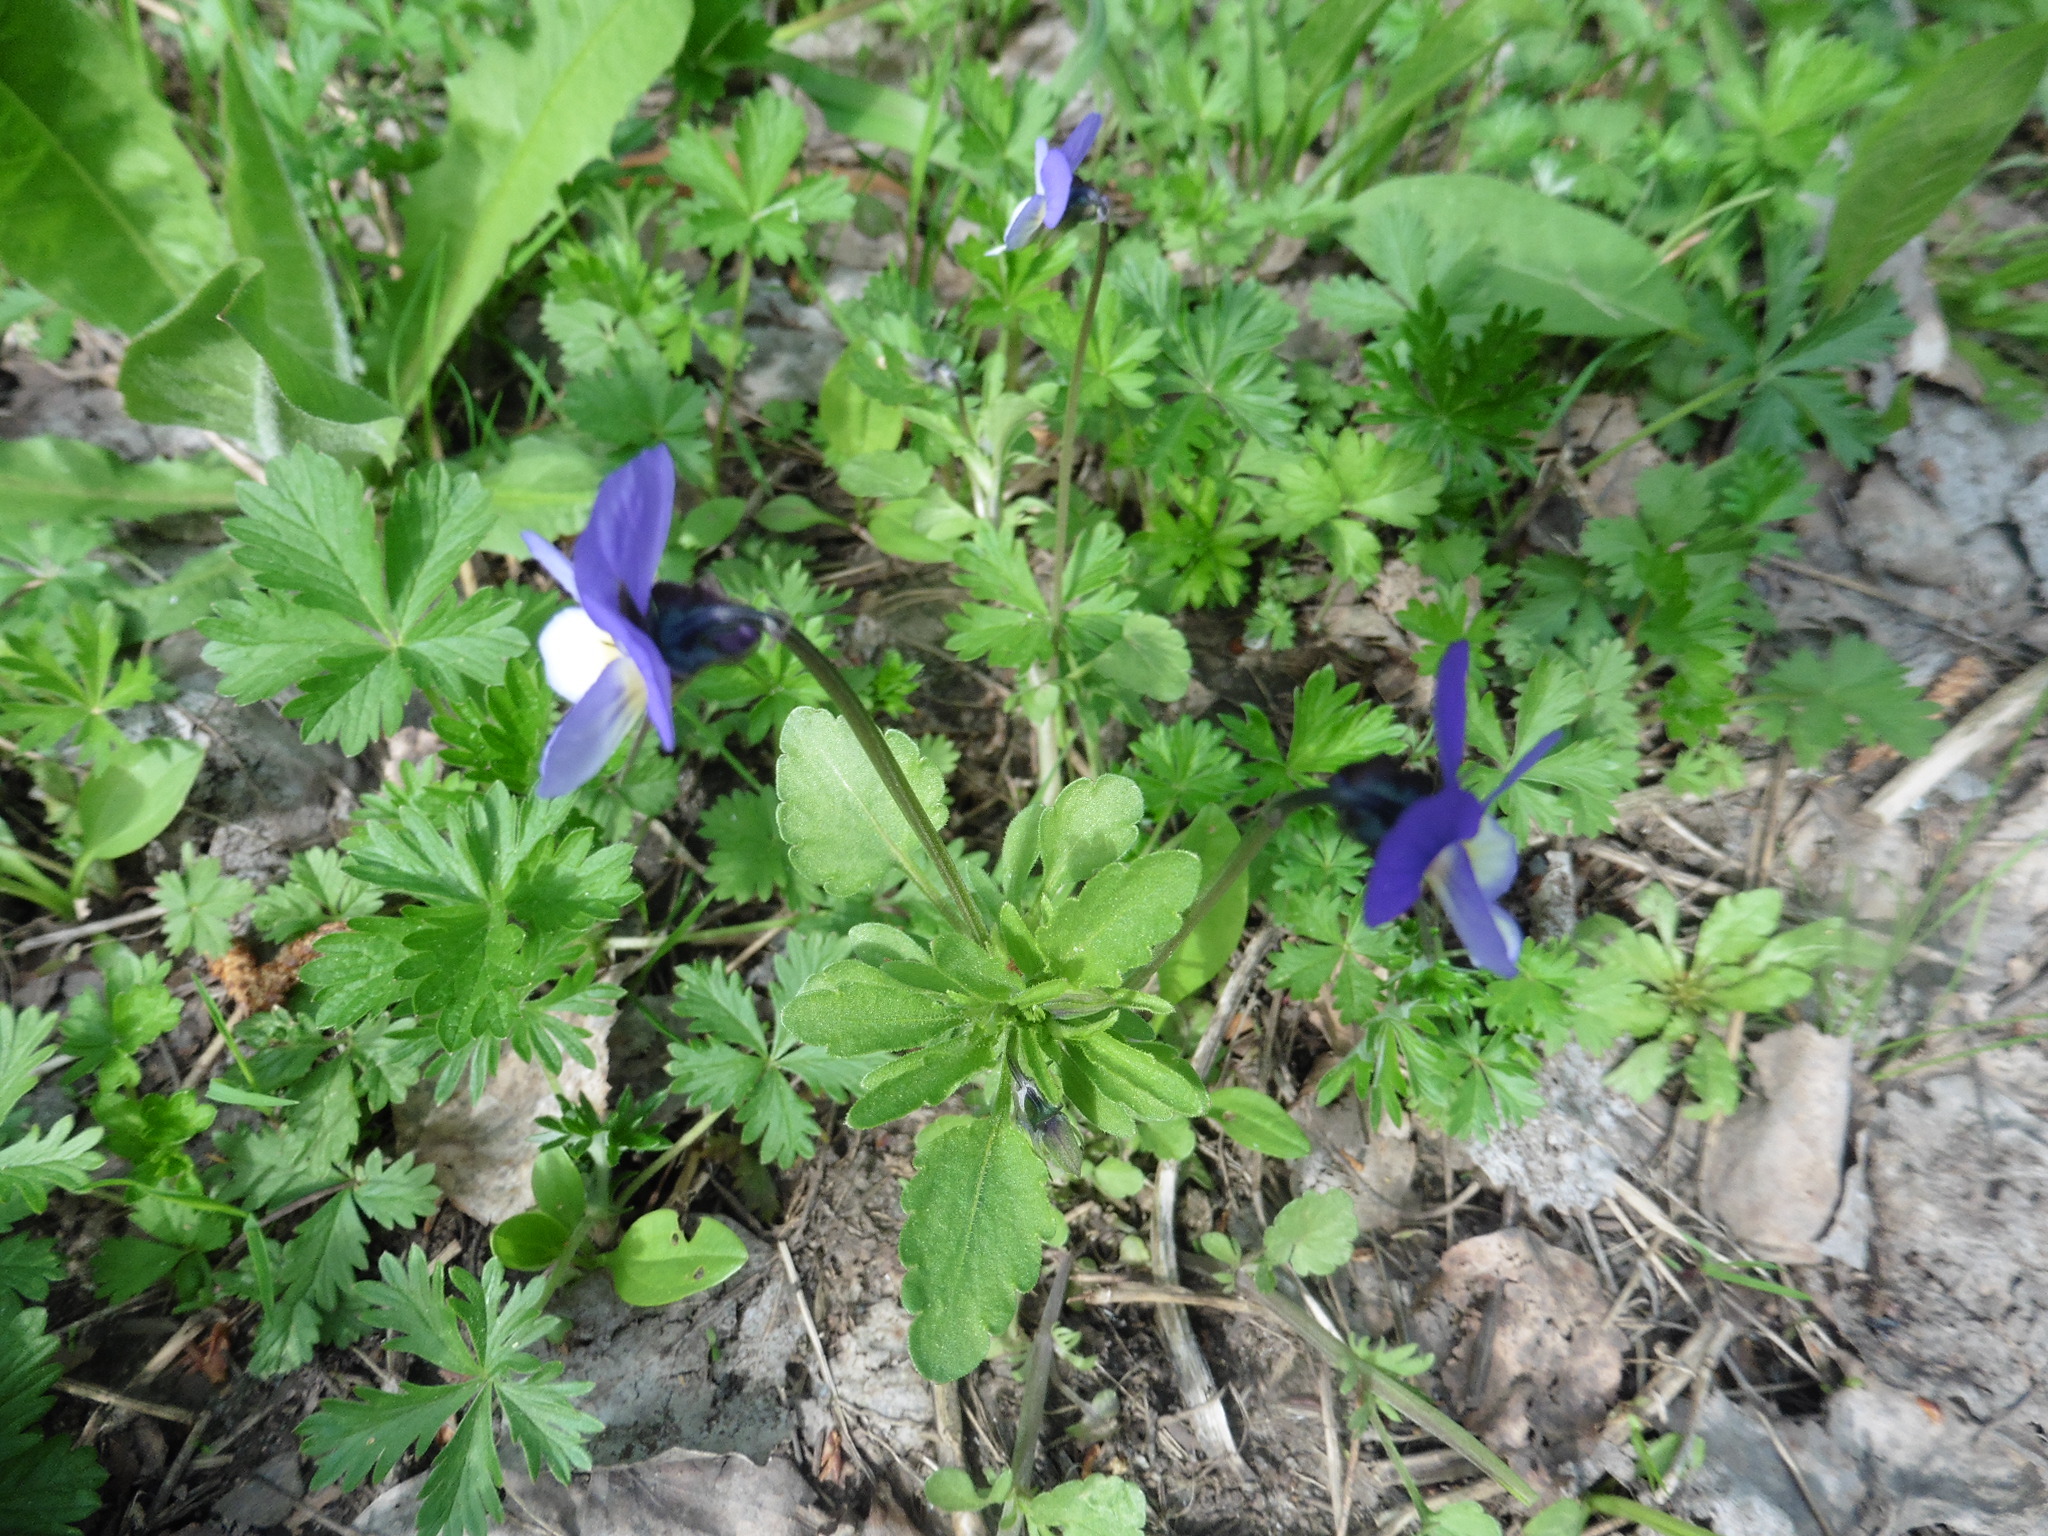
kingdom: Plantae
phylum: Tracheophyta
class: Magnoliopsida
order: Malpighiales
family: Violaceae
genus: Viola
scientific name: Viola tricolor
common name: Pansy
